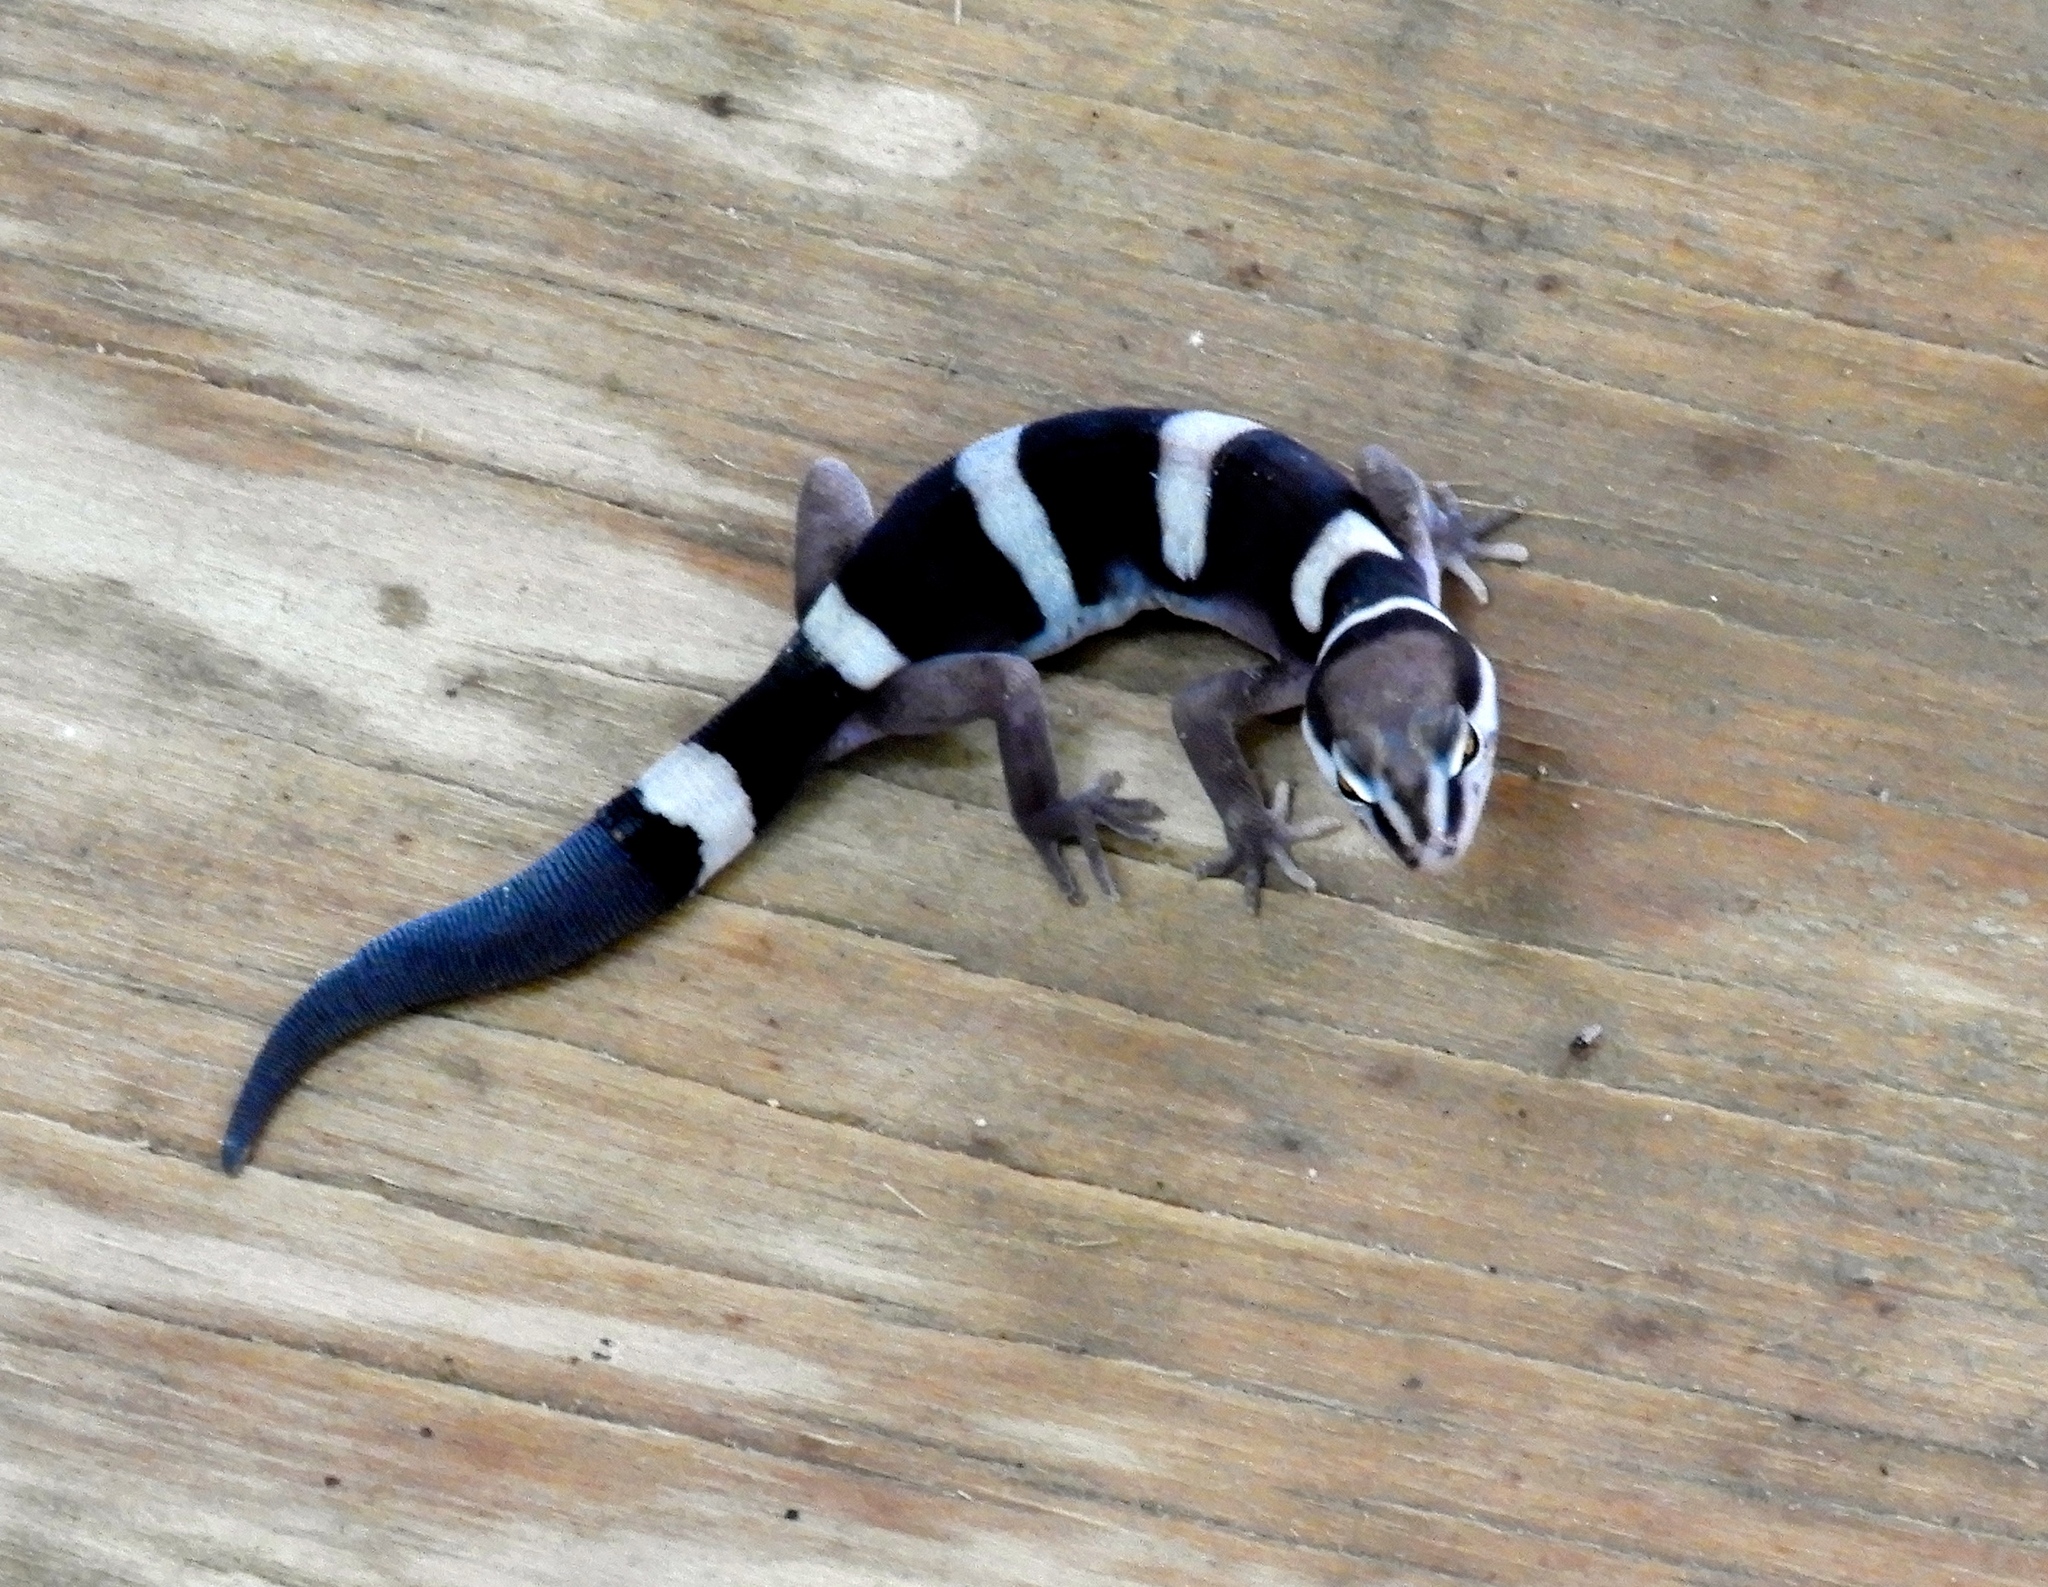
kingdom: Animalia
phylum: Chordata
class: Squamata
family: Eublepharidae
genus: Coleonyx
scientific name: Coleonyx fasciatus
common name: Black banded gecko
